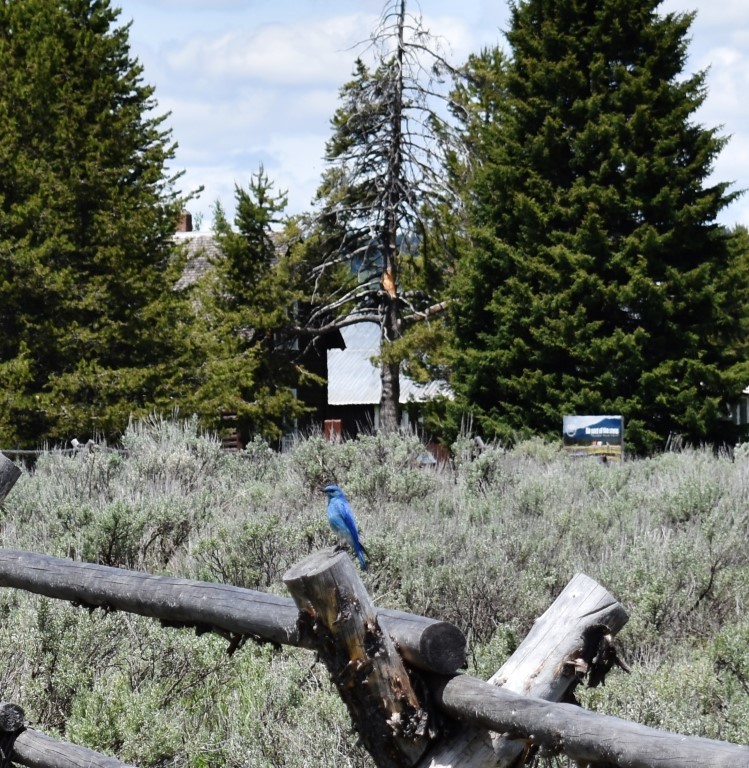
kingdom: Animalia
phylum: Chordata
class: Aves
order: Passeriformes
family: Turdidae
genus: Sialia
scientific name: Sialia currucoides
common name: Mountain bluebird
